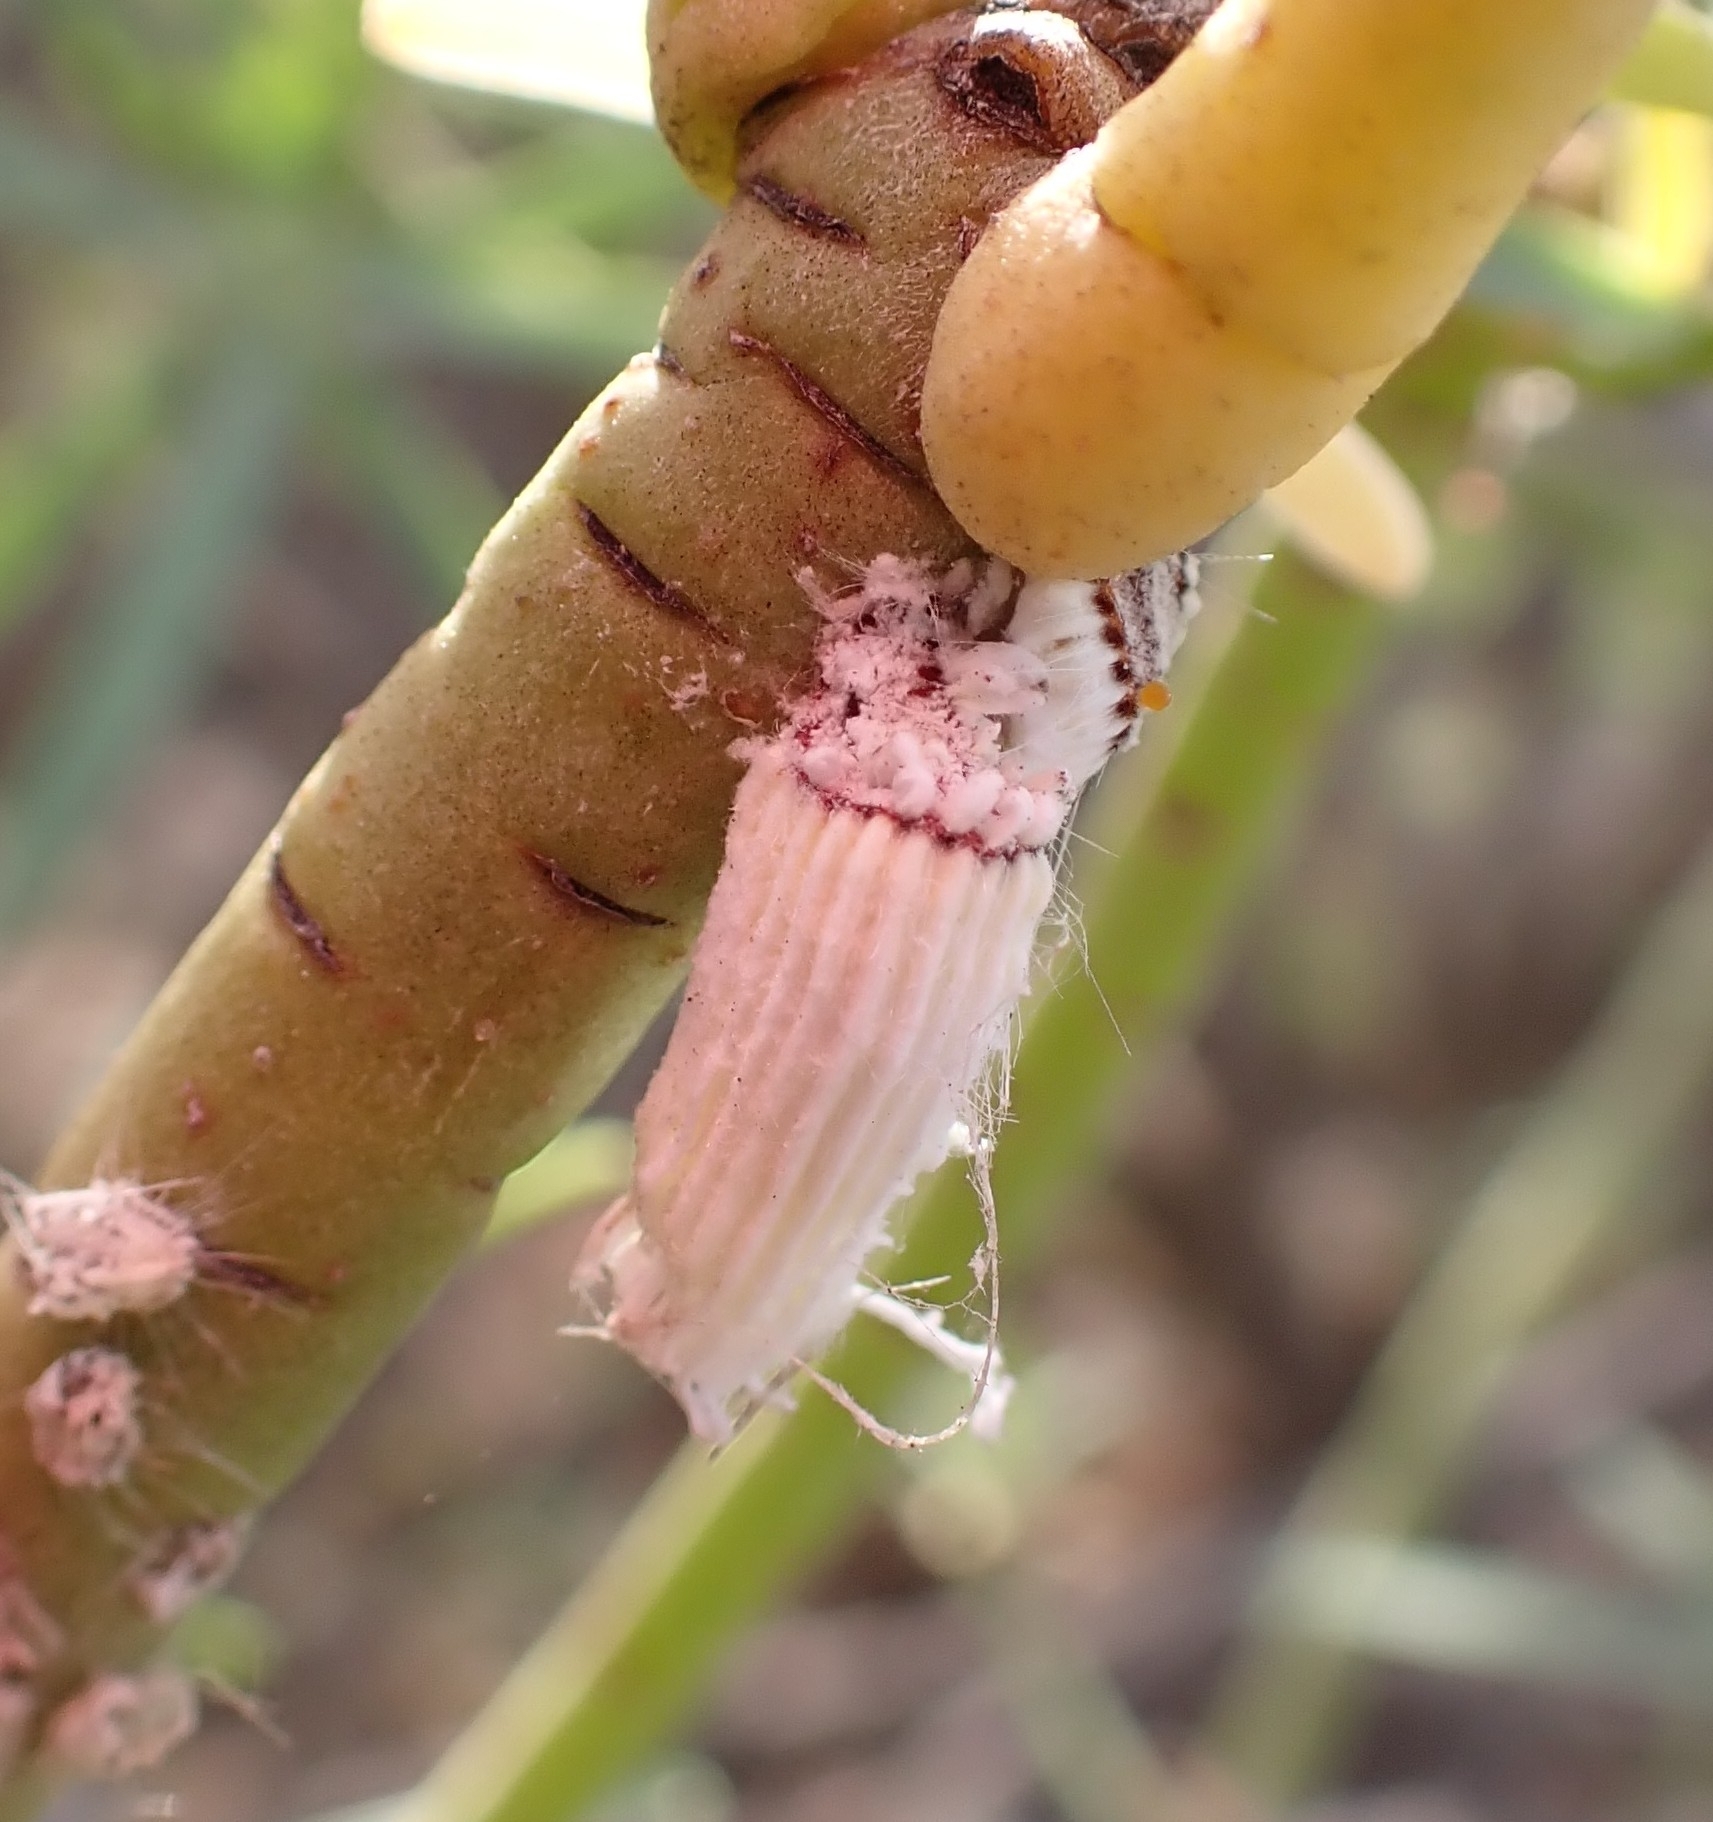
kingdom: Animalia
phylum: Arthropoda
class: Insecta
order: Hemiptera
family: Margarodidae
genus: Icerya
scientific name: Icerya purchasi
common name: Cottony cushion scale
